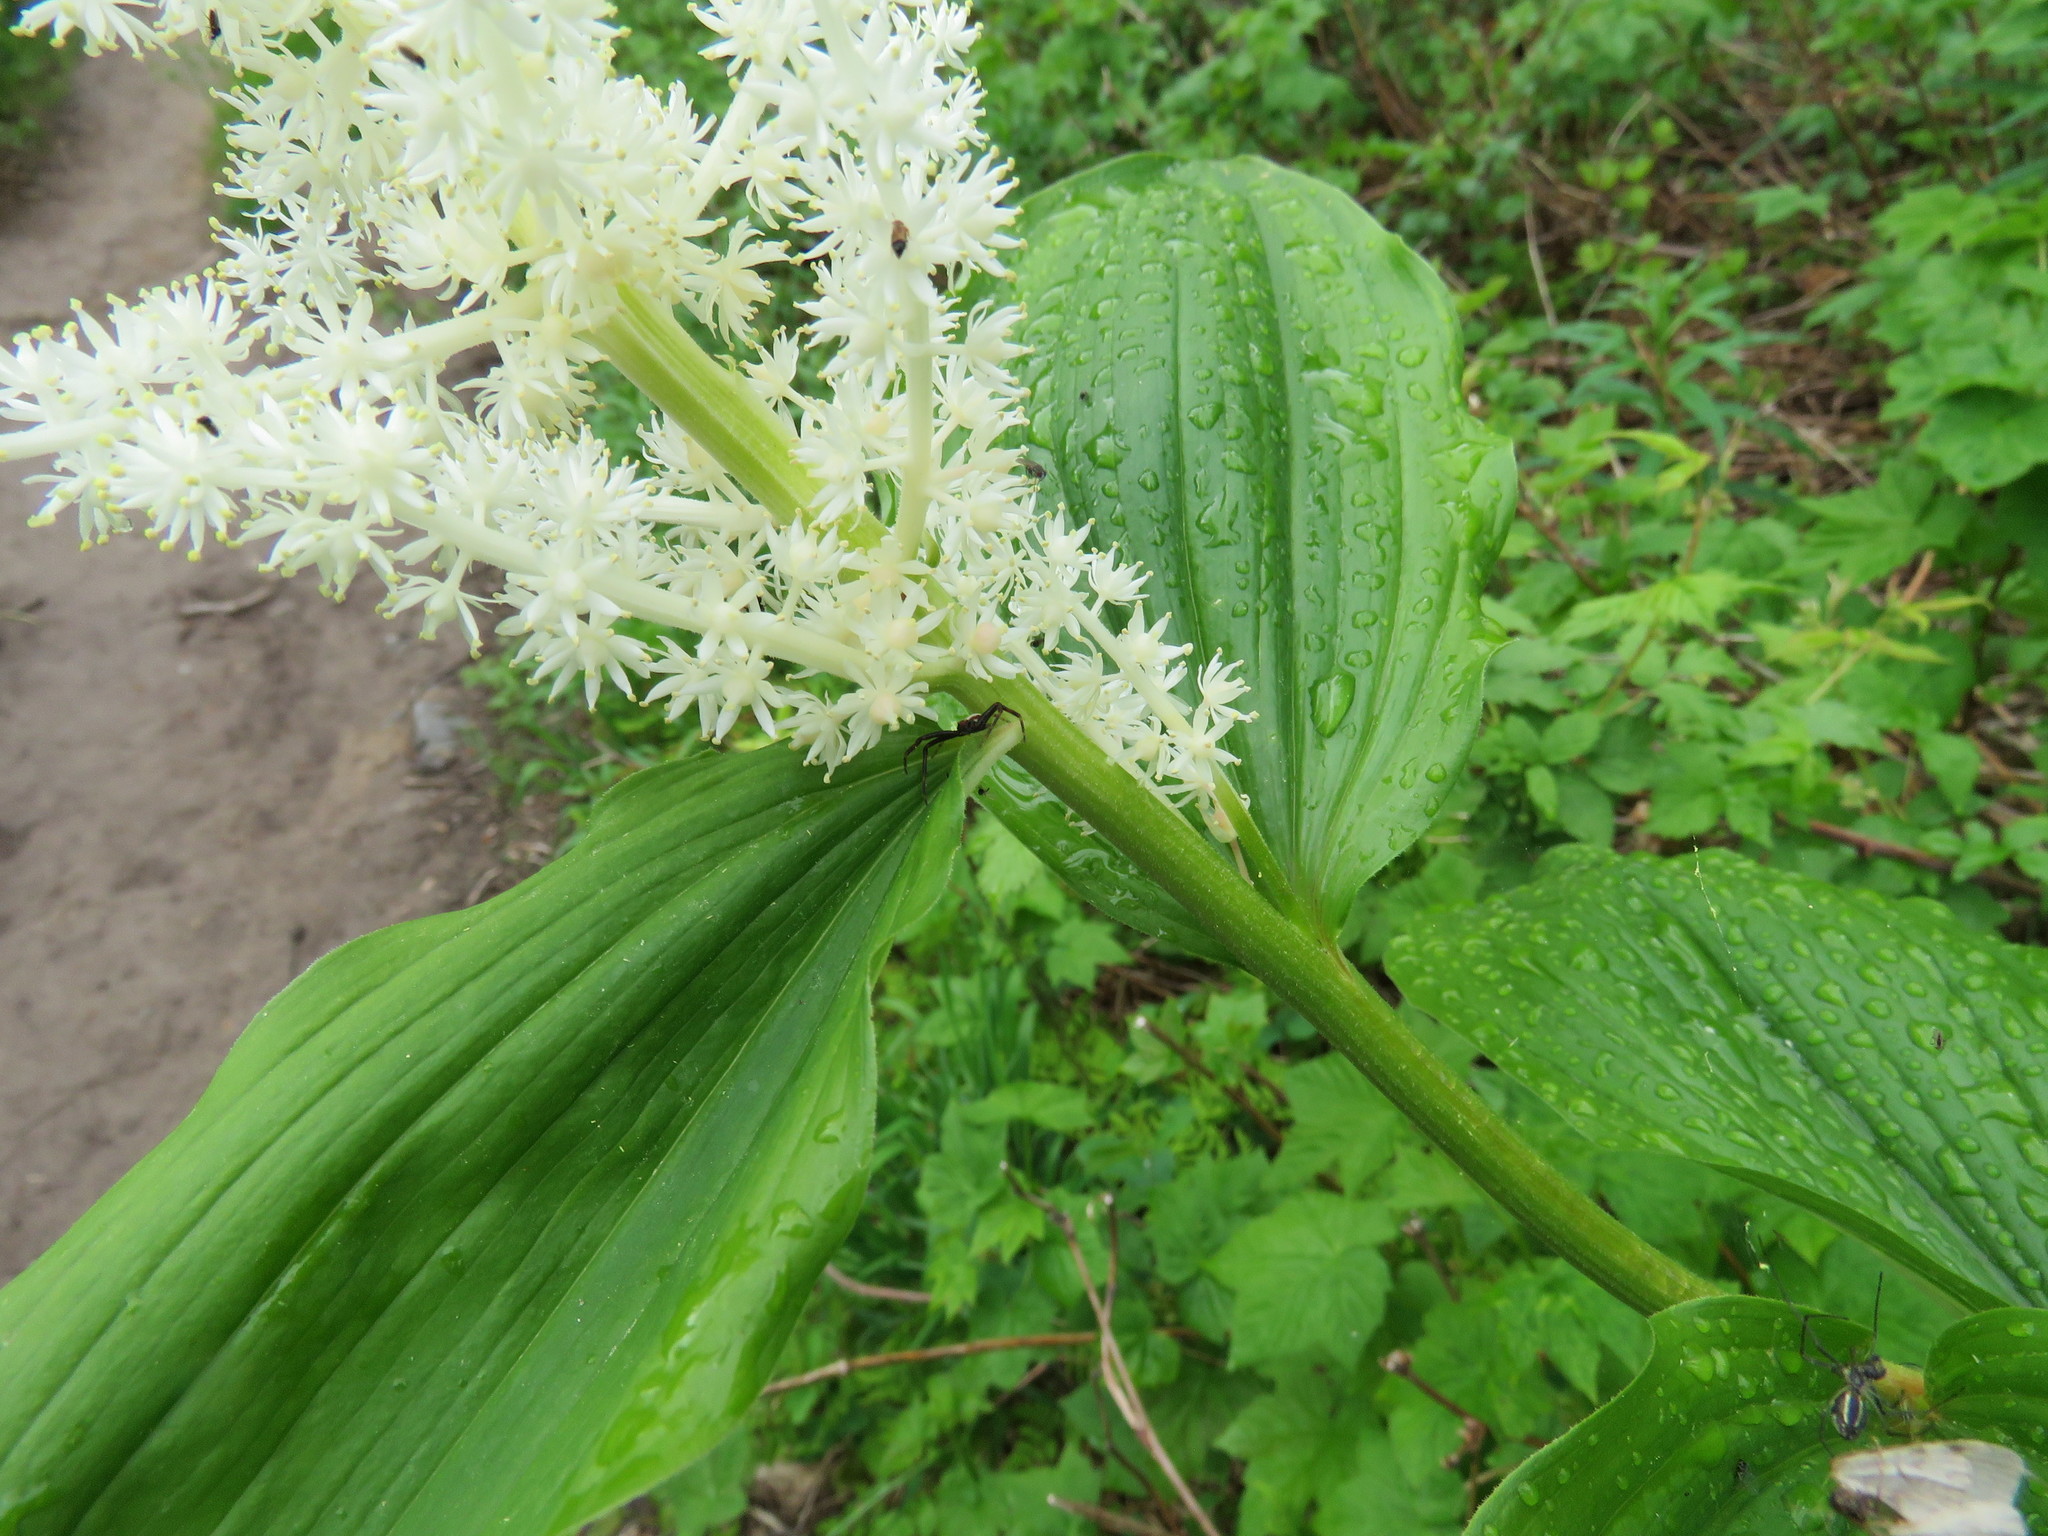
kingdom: Animalia
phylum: Arthropoda
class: Arachnida
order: Araneae
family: Thomisidae
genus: Misumena
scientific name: Misumena vatia
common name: Goldenrod crab spider
